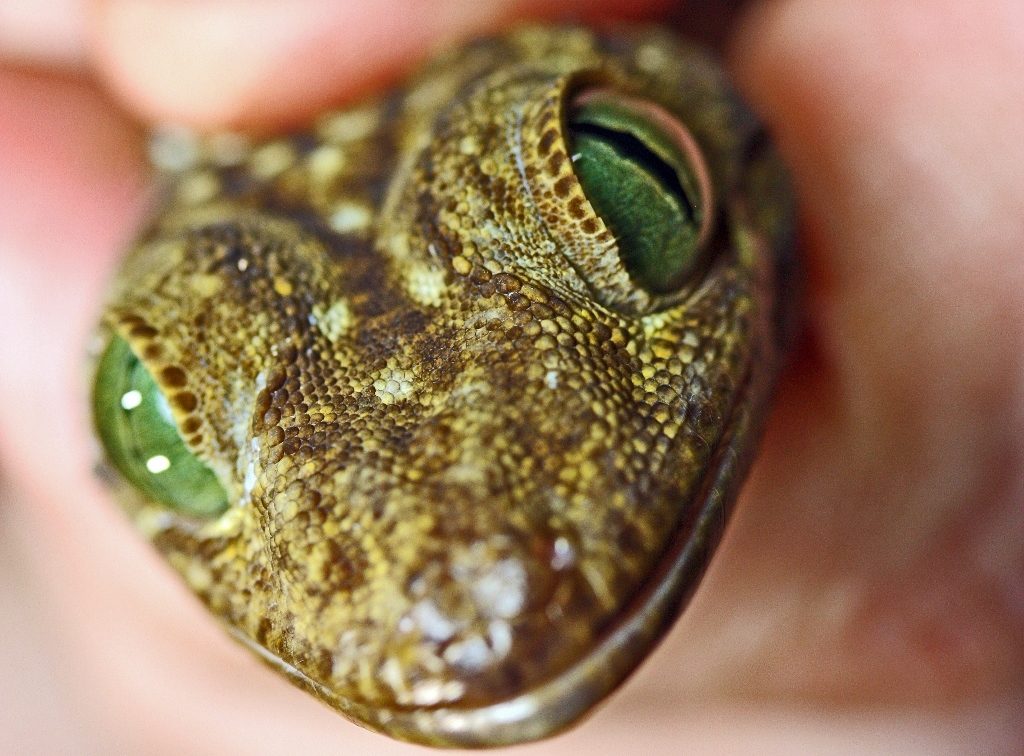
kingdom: Animalia
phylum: Chordata
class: Squamata
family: Gekkonidae
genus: Gekko
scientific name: Gekko albofasciolatus
